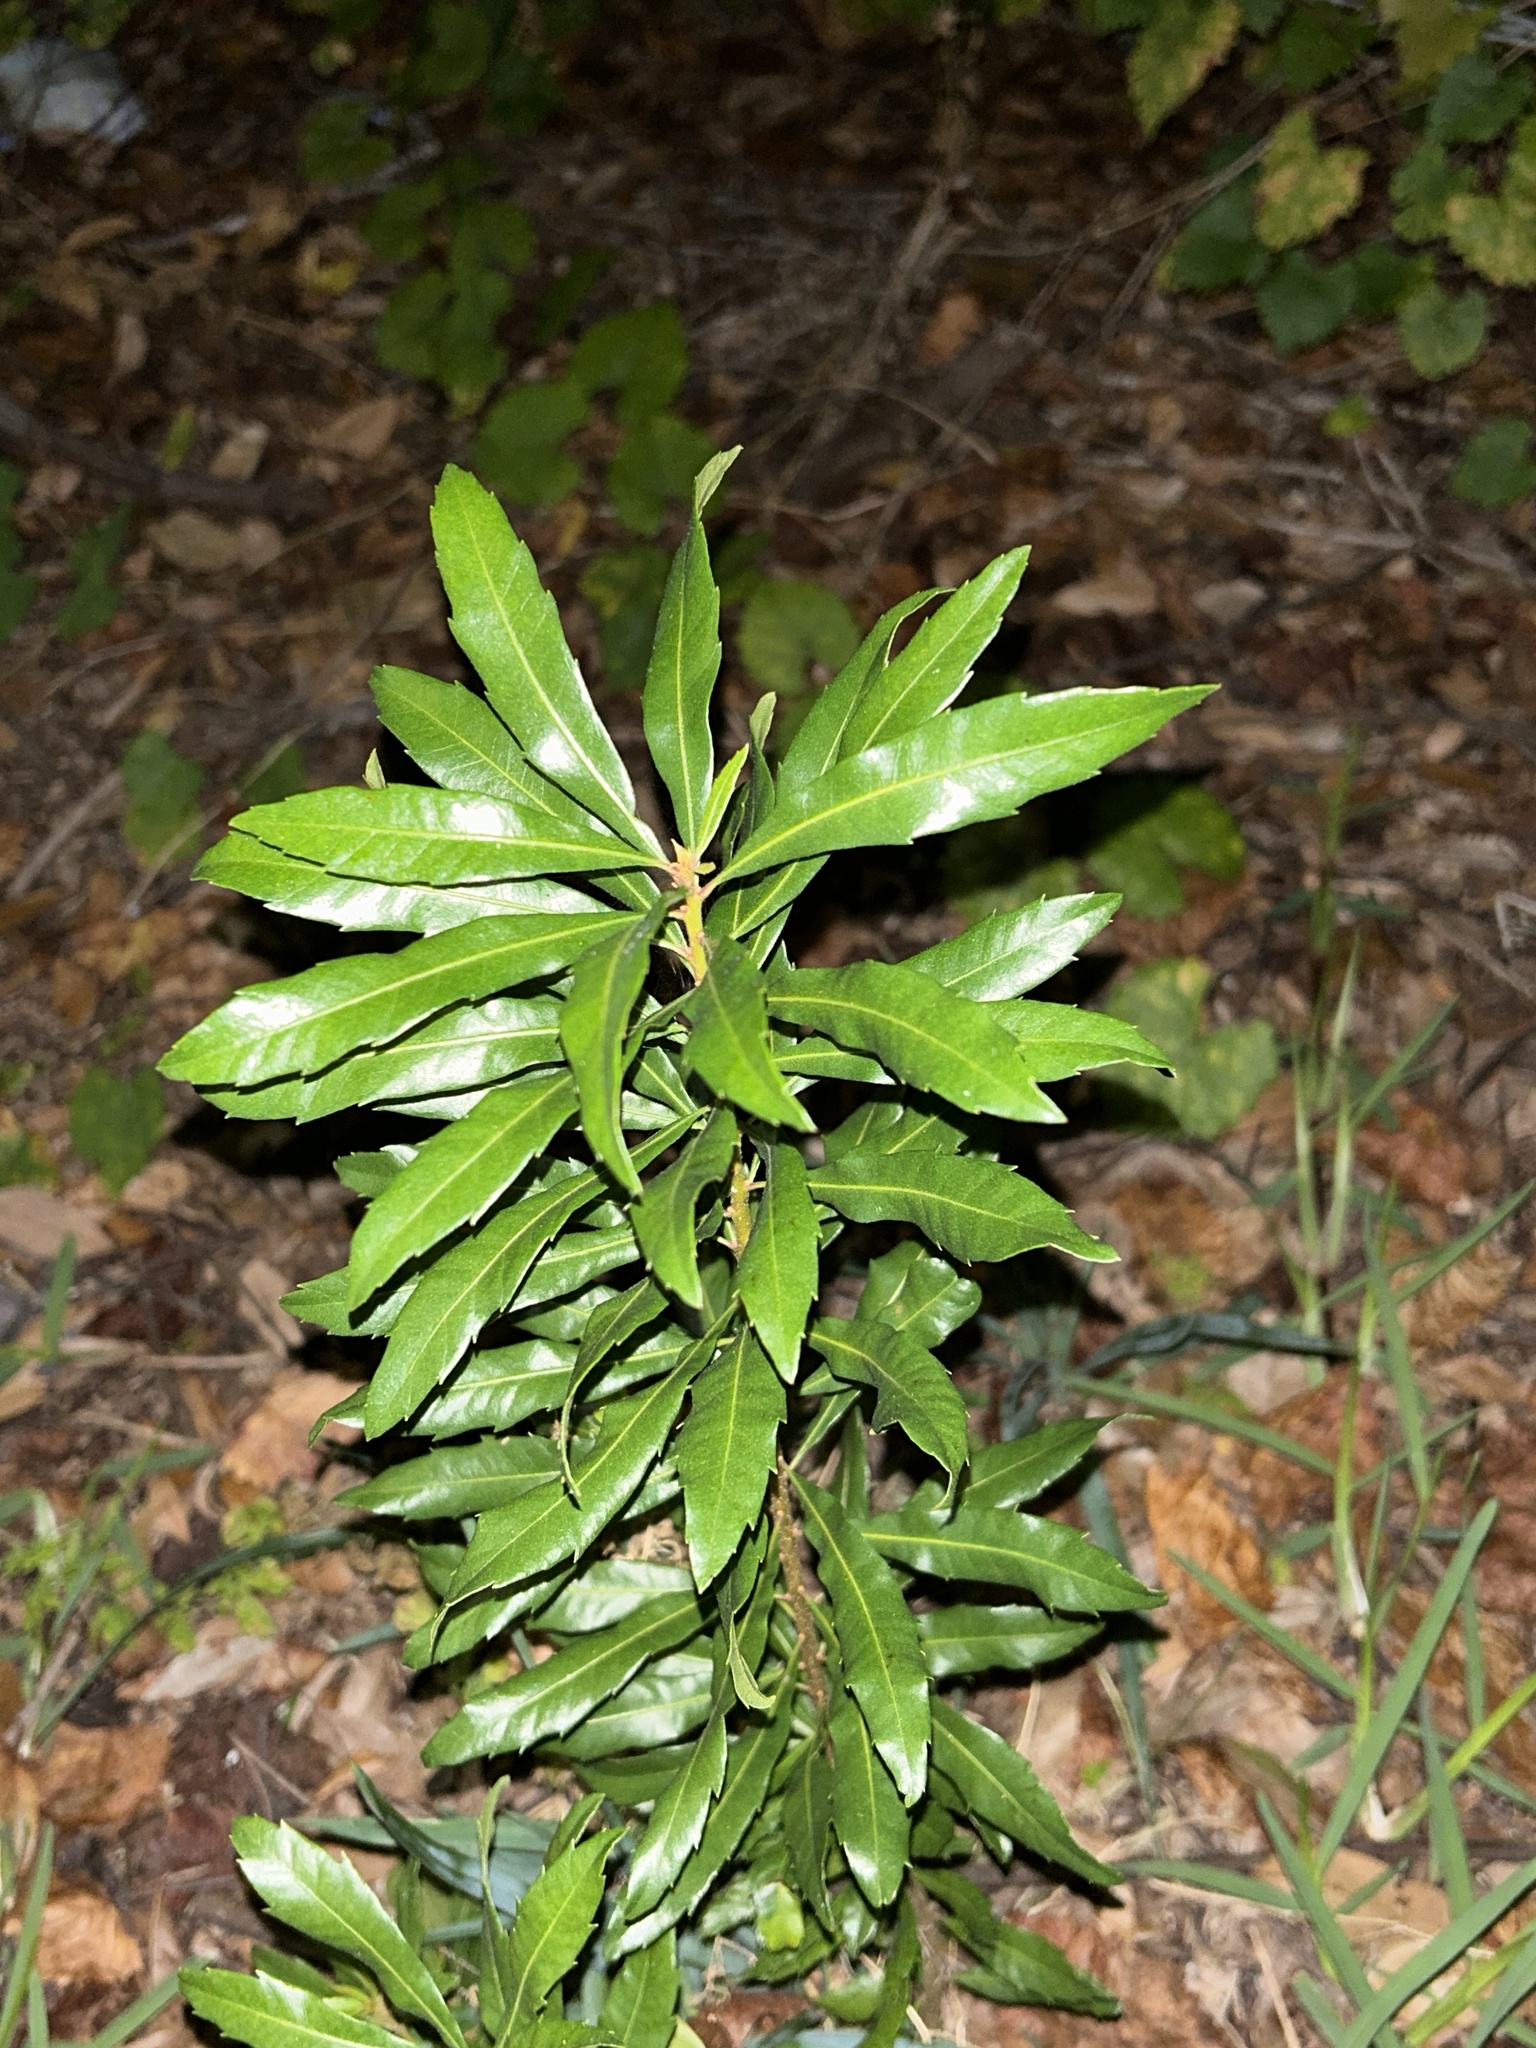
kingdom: Plantae
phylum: Tracheophyta
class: Magnoliopsida
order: Fagales
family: Myricaceae
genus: Morella
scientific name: Morella cerifera
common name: Wax myrtle
